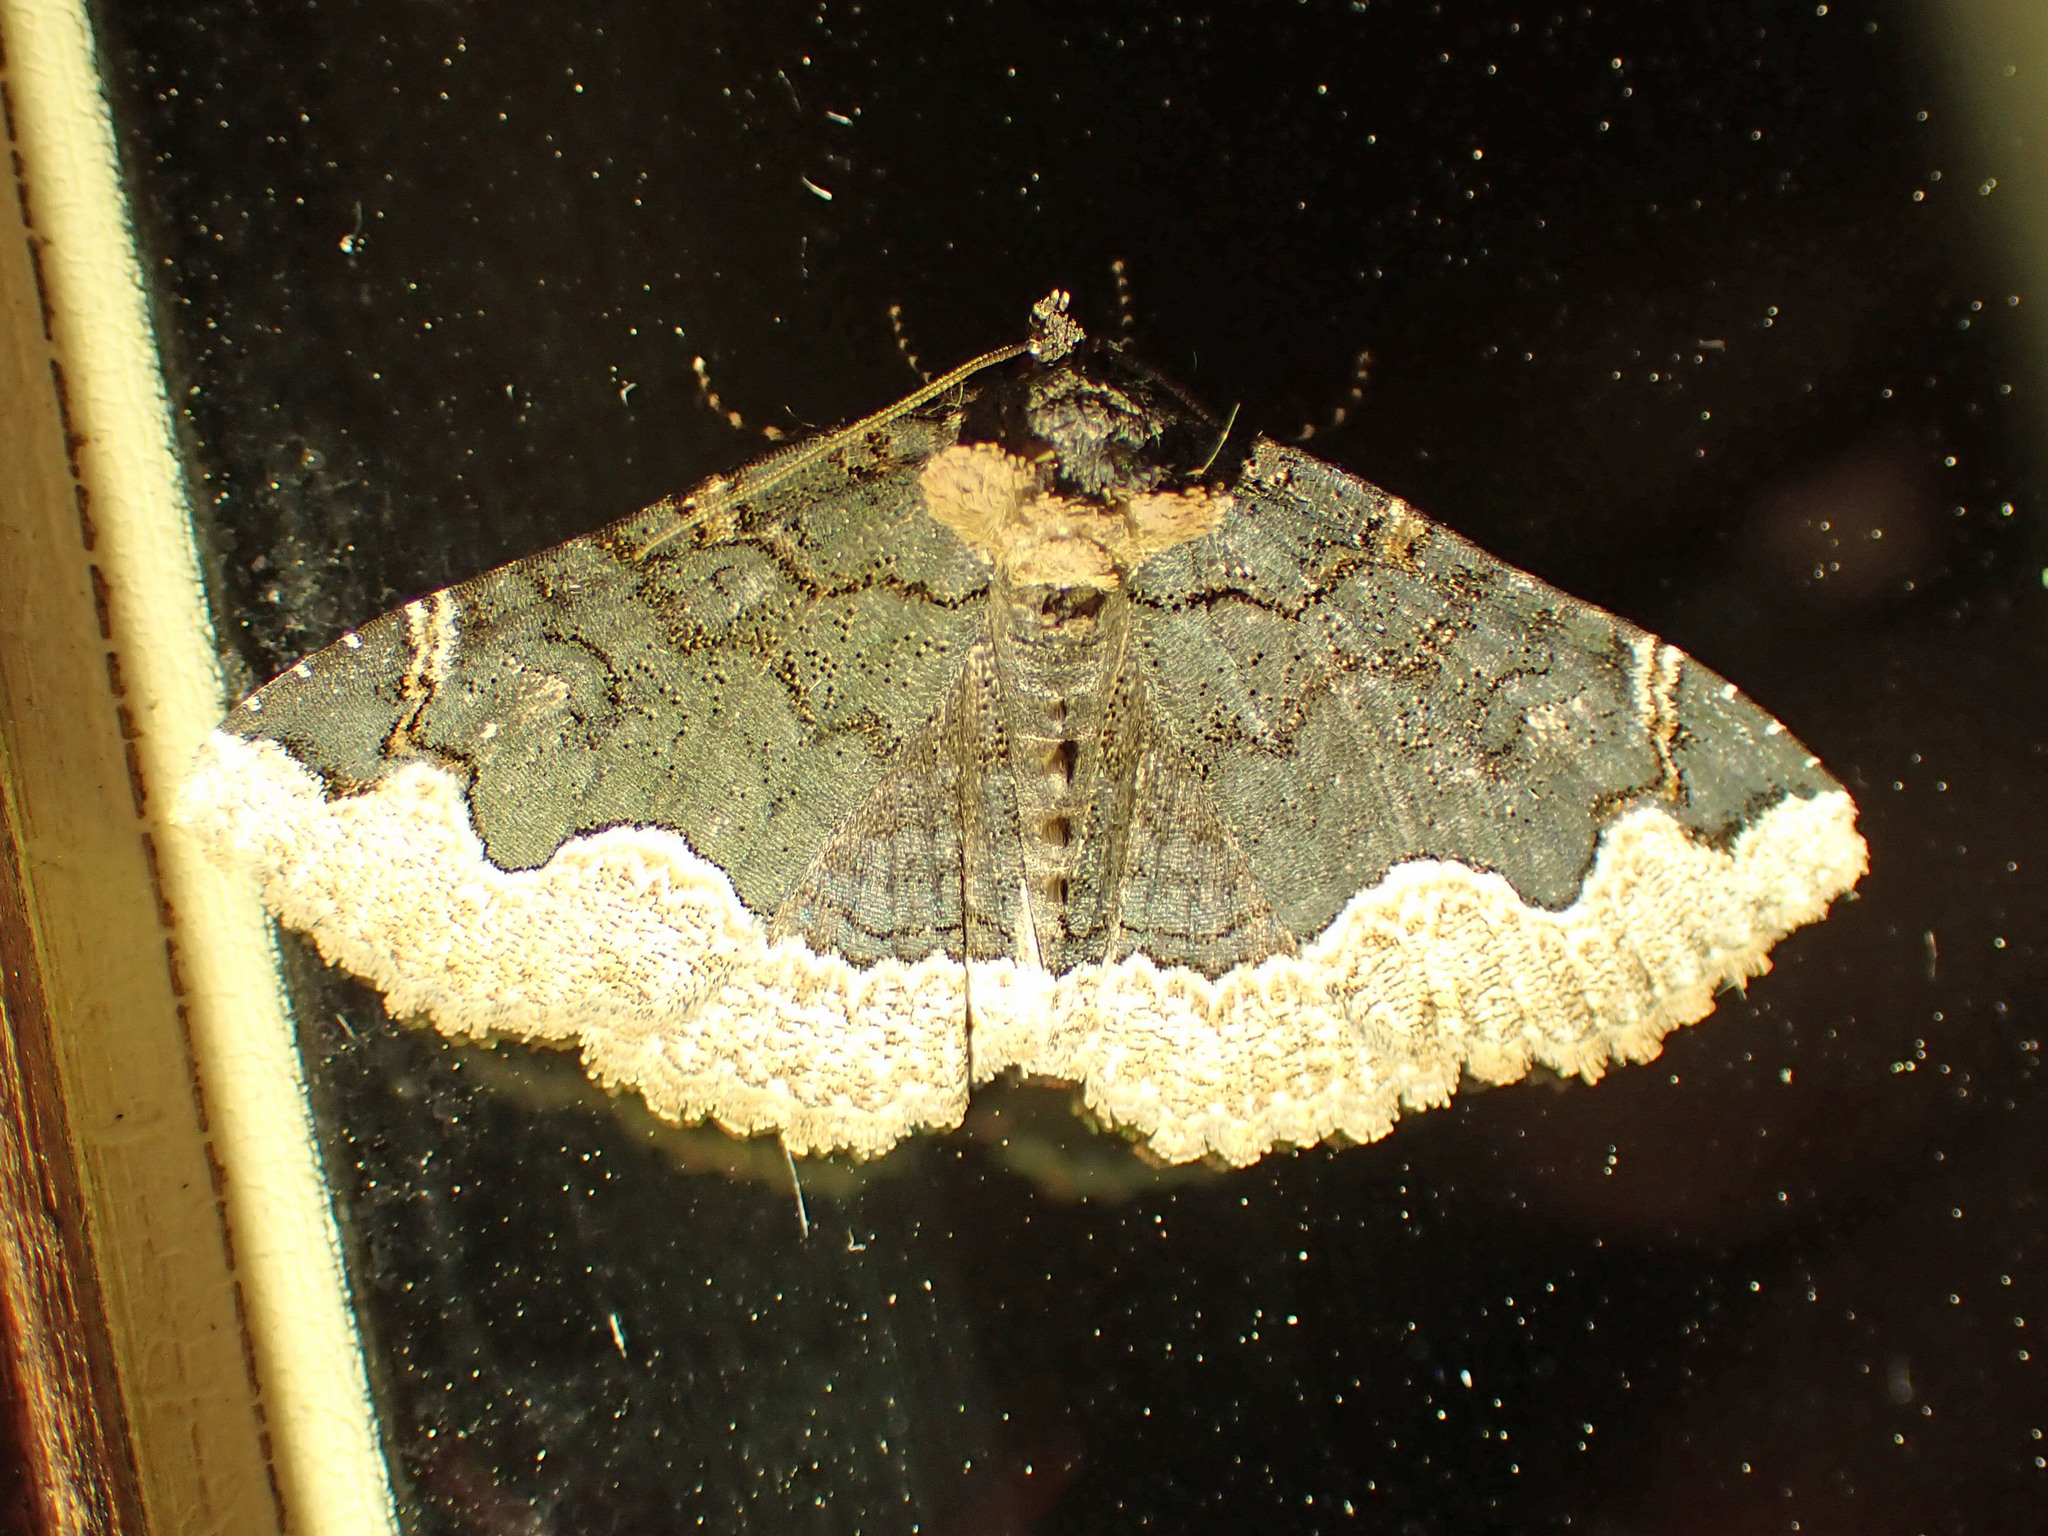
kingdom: Animalia
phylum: Arthropoda
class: Insecta
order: Lepidoptera
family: Erebidae
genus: Zale
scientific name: Zale horrida
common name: Horrid zale moth
